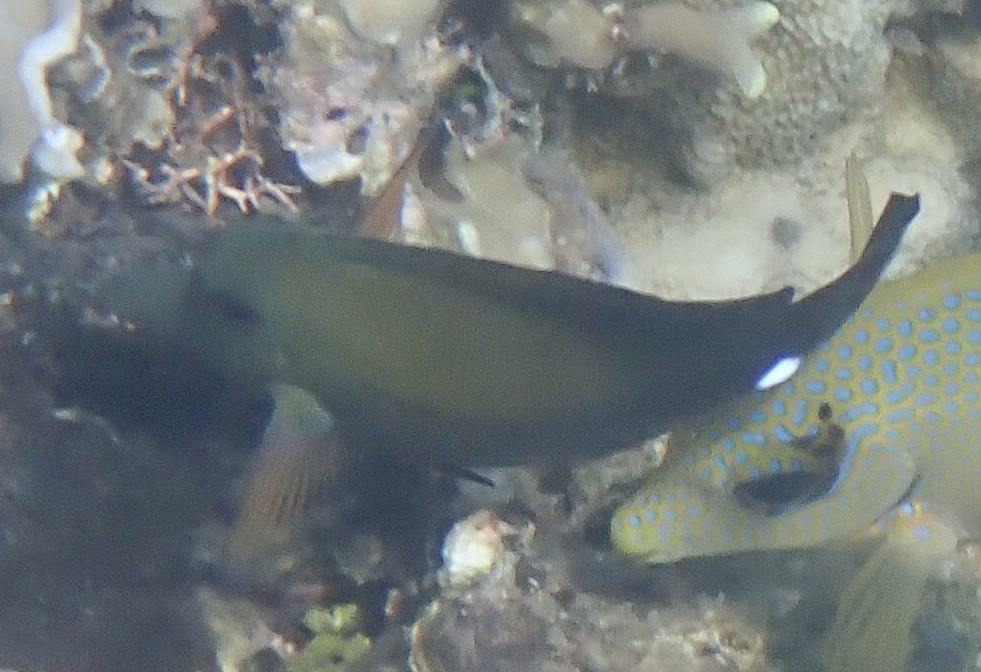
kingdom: Animalia
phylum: Chordata
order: Perciformes
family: Acanthuridae
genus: Zebrasoma
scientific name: Zebrasoma scopas
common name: Twotone tang
